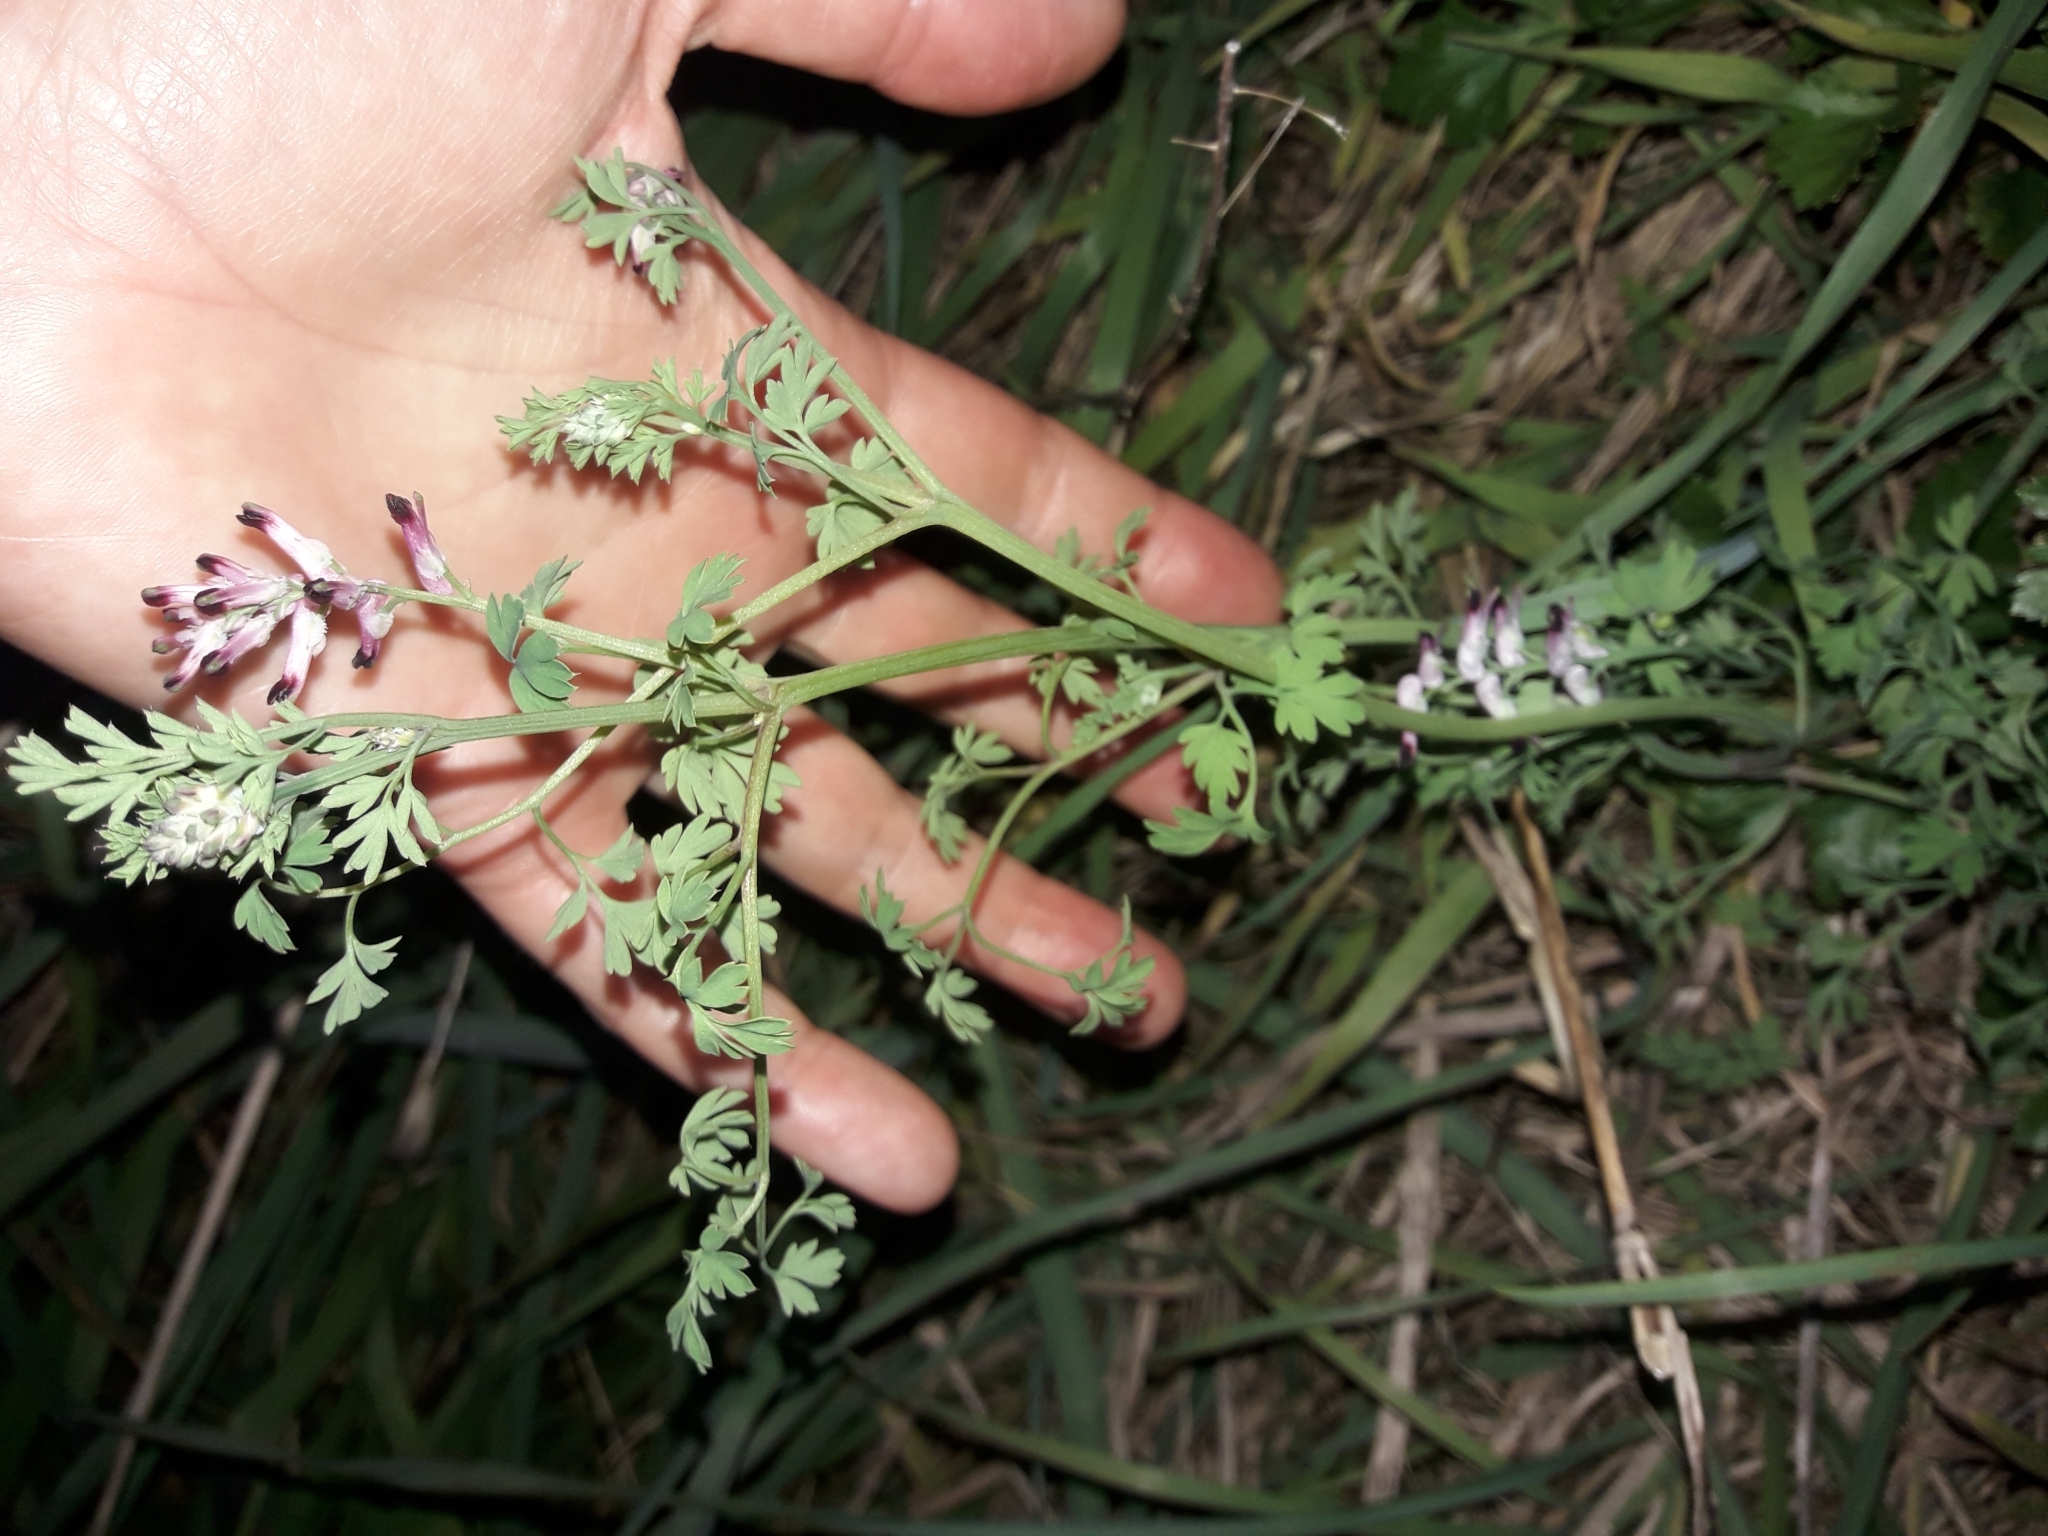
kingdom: Plantae
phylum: Tracheophyta
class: Magnoliopsida
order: Ranunculales
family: Papaveraceae
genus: Fumaria
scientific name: Fumaria muralis
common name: Common ramping-fumitory
